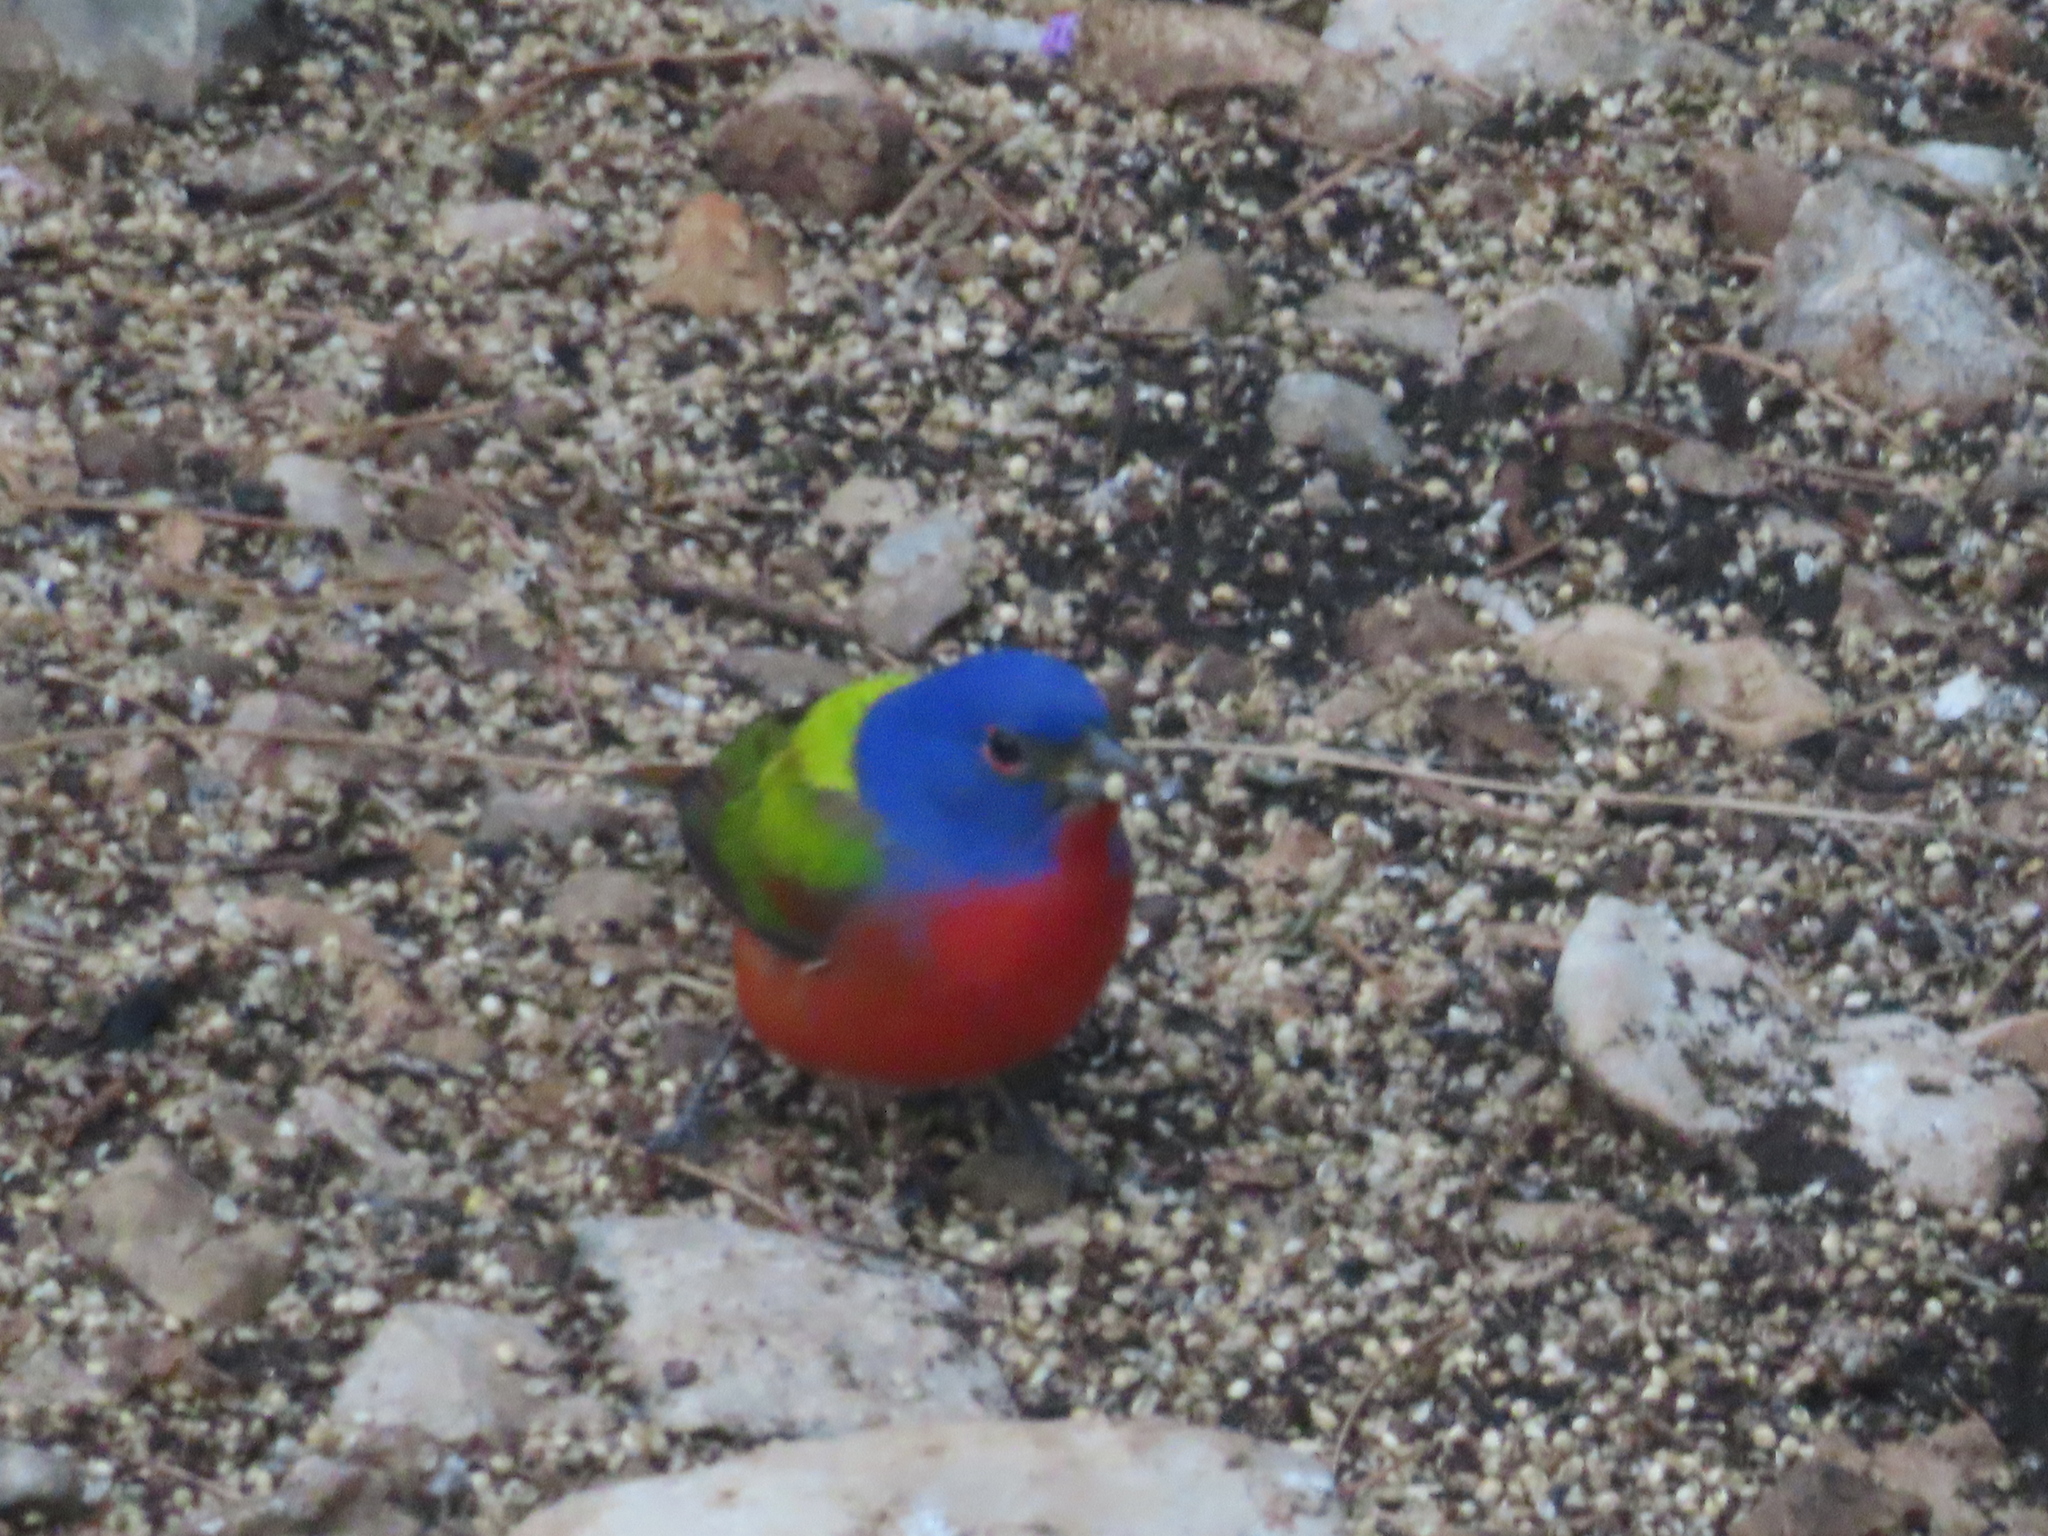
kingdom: Animalia
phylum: Chordata
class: Aves
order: Passeriformes
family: Cardinalidae
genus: Passerina
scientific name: Passerina ciris
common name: Painted bunting
